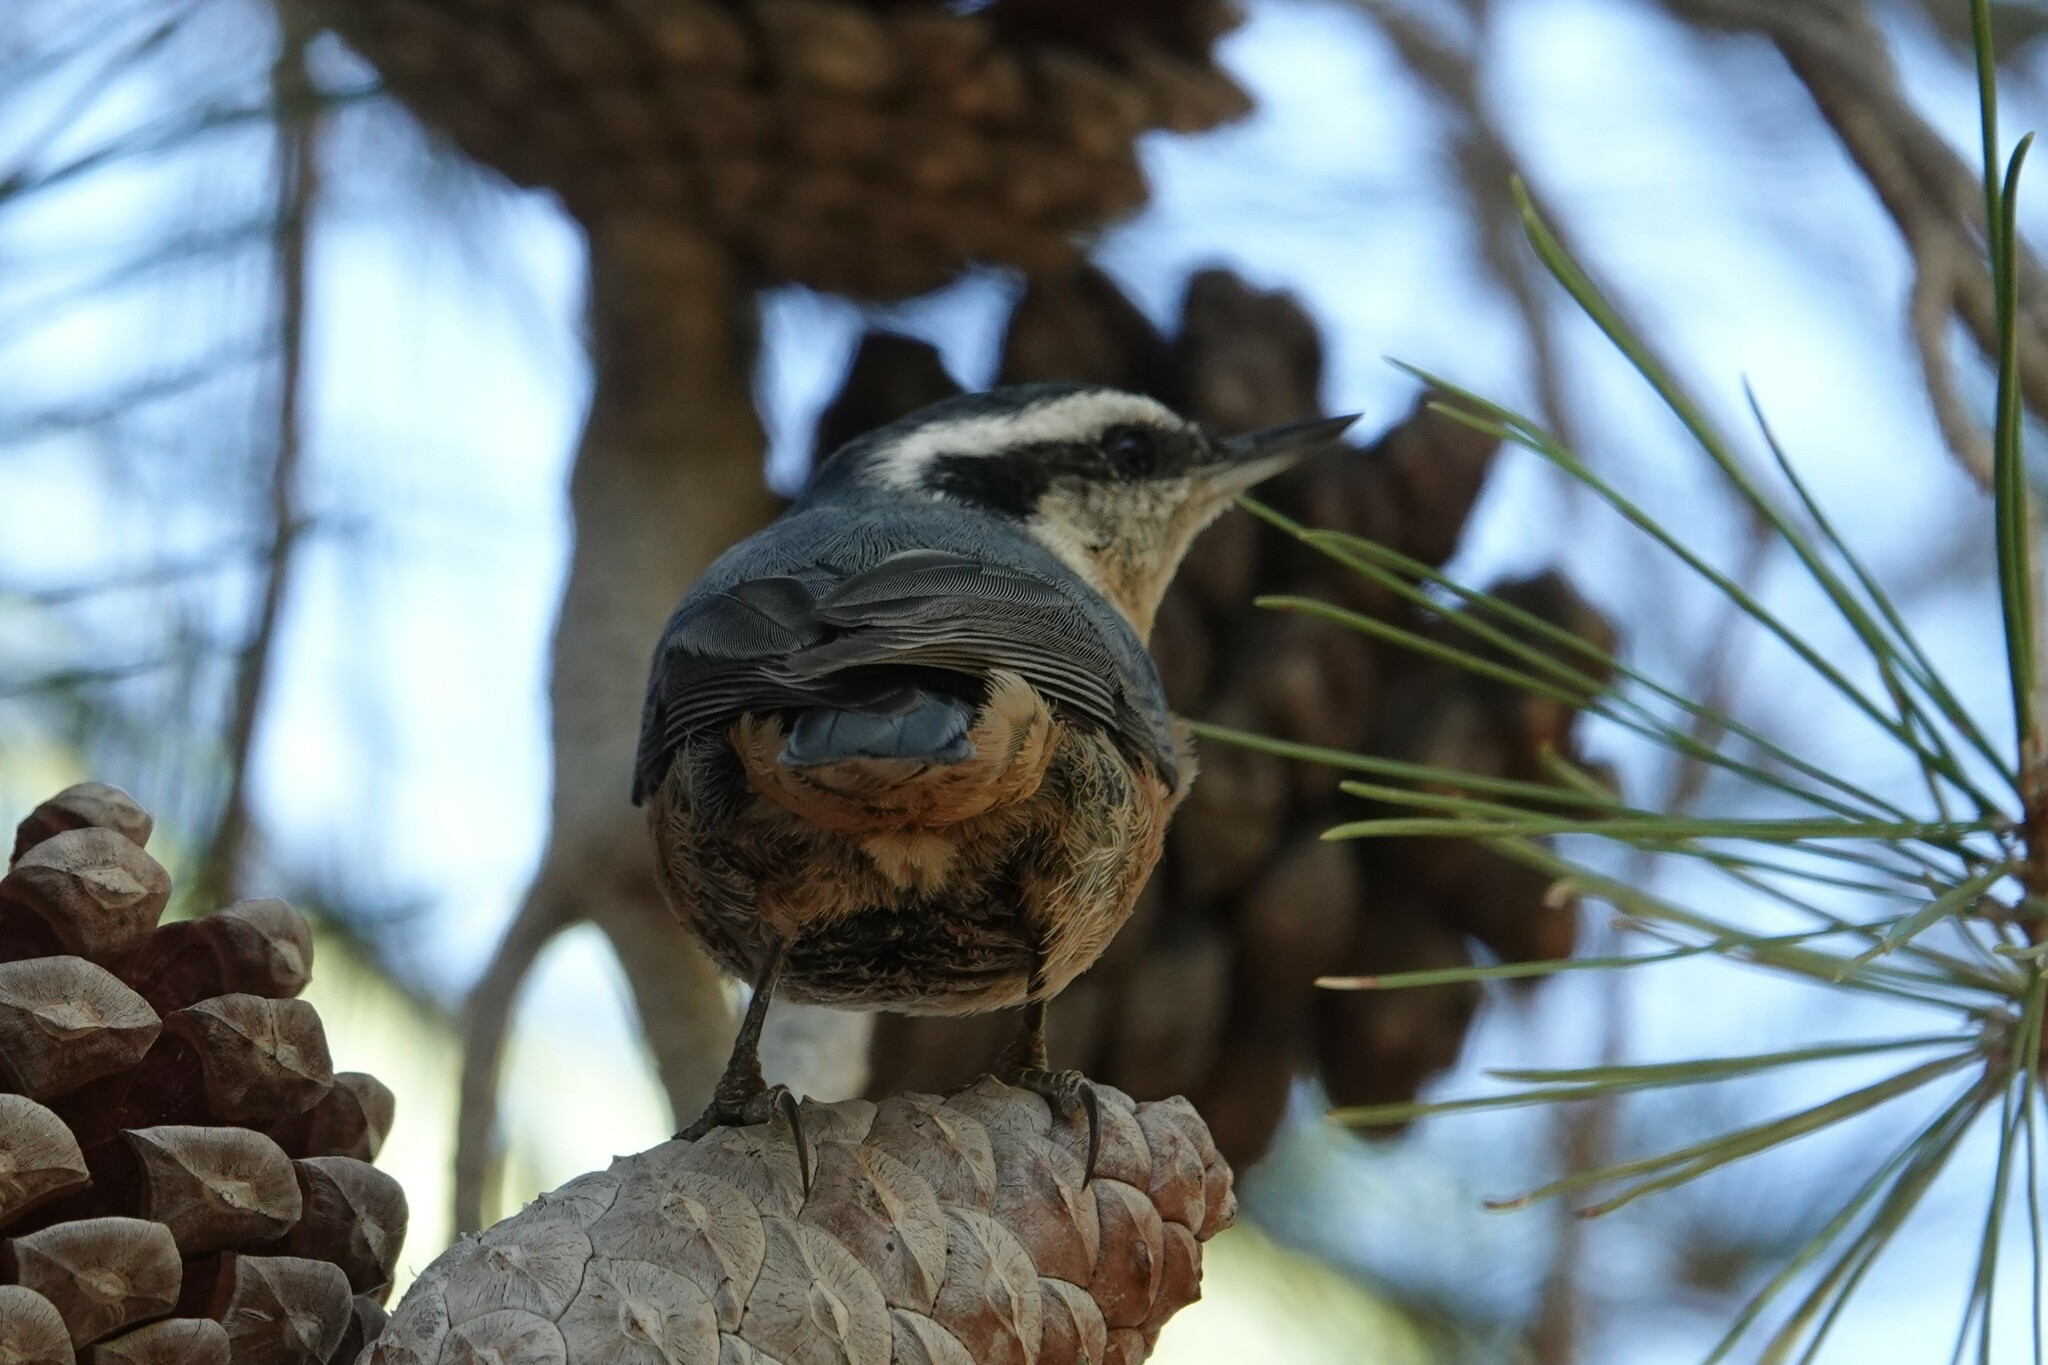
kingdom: Animalia
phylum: Chordata
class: Aves
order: Passeriformes
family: Sittidae
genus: Sitta
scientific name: Sitta canadensis
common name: Red-breasted nuthatch
